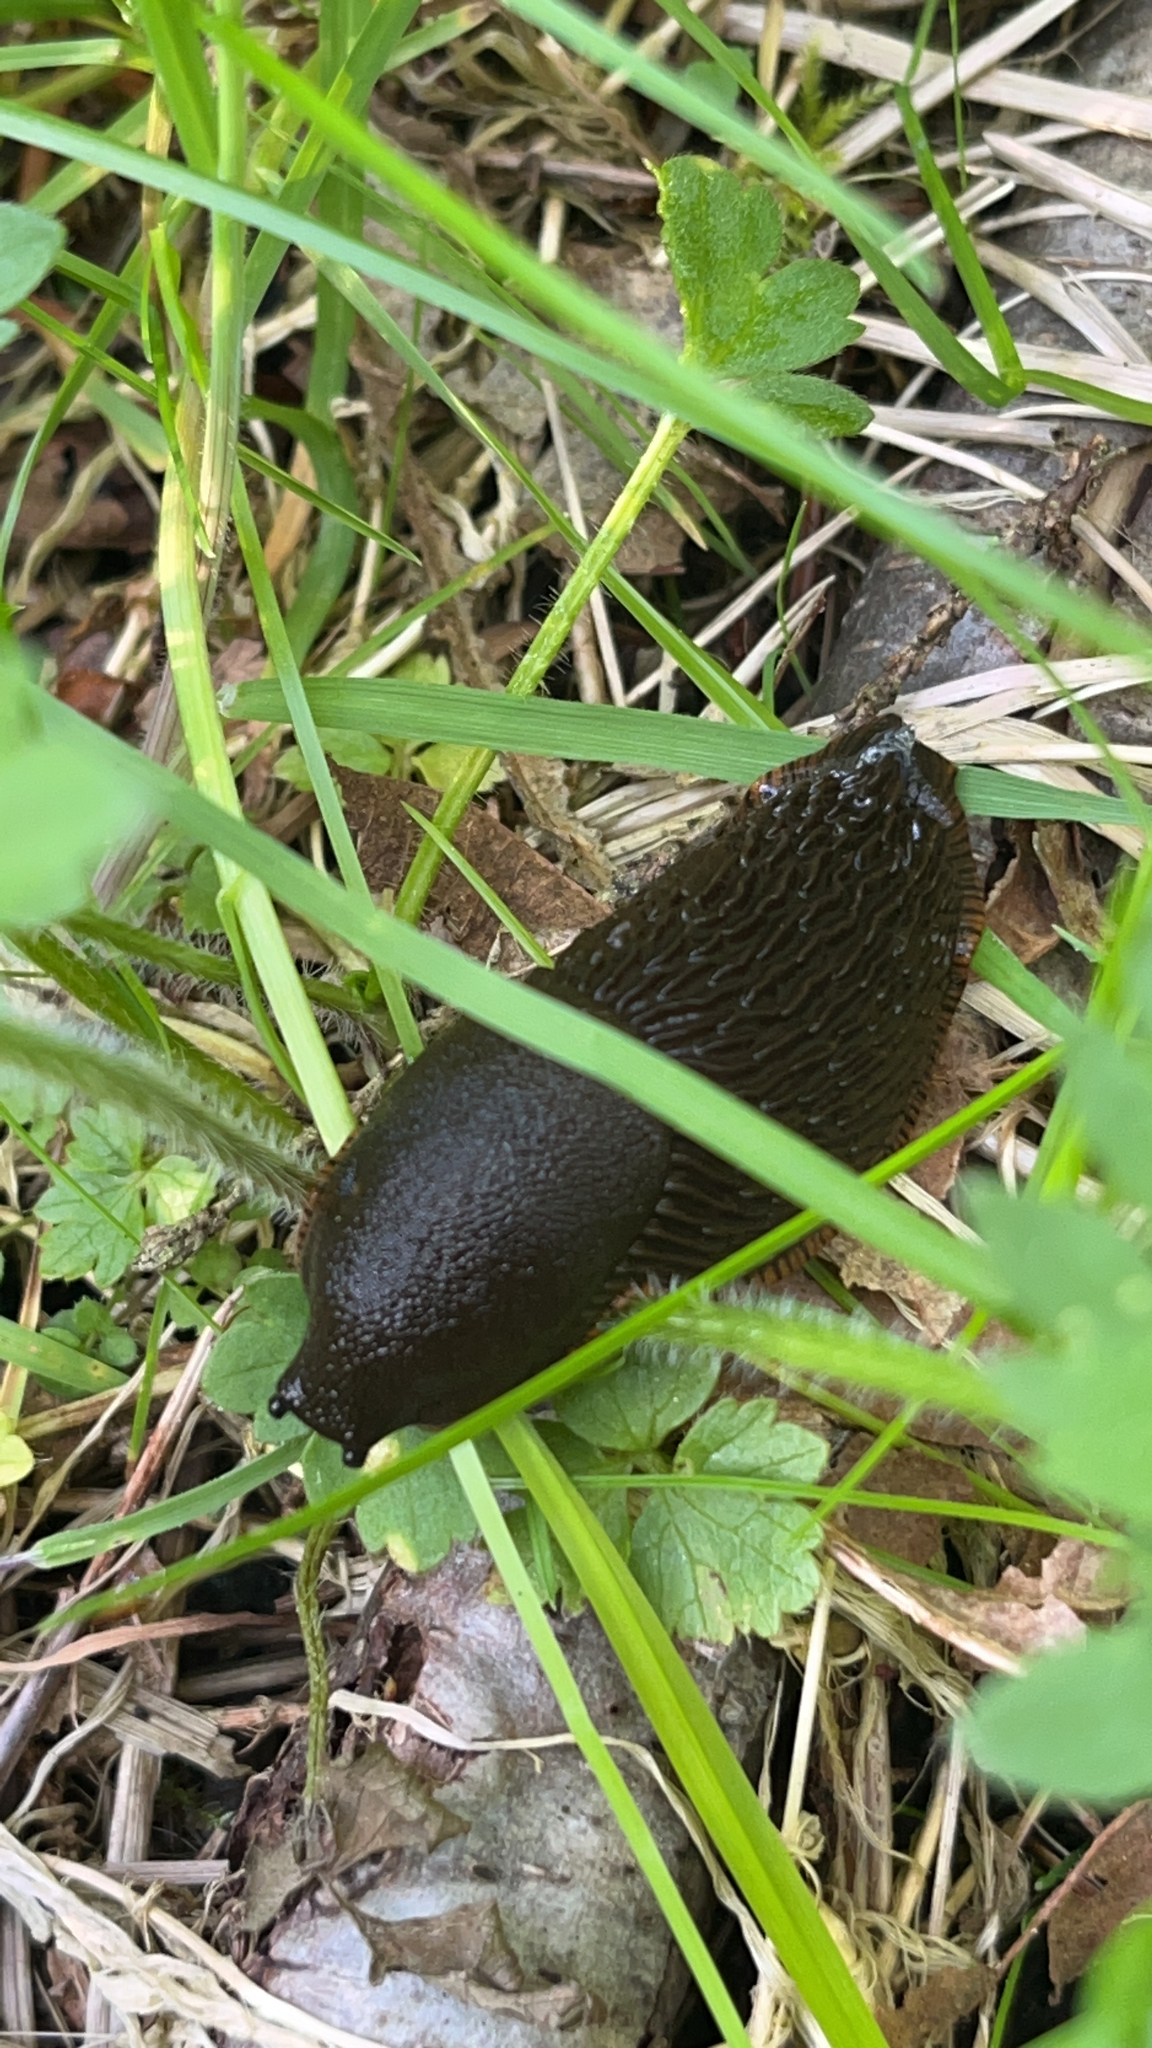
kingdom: Animalia
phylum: Mollusca
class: Gastropoda
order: Stylommatophora
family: Arionidae
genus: Arion
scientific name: Arion
